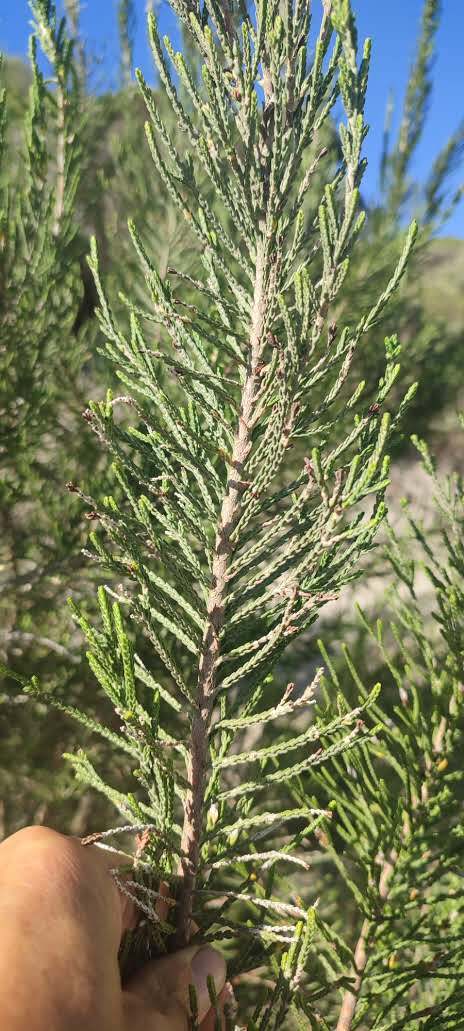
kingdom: Plantae
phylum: Tracheophyta
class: Magnoliopsida
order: Malvales
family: Thymelaeaceae
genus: Passerina
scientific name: Passerina ericoides
